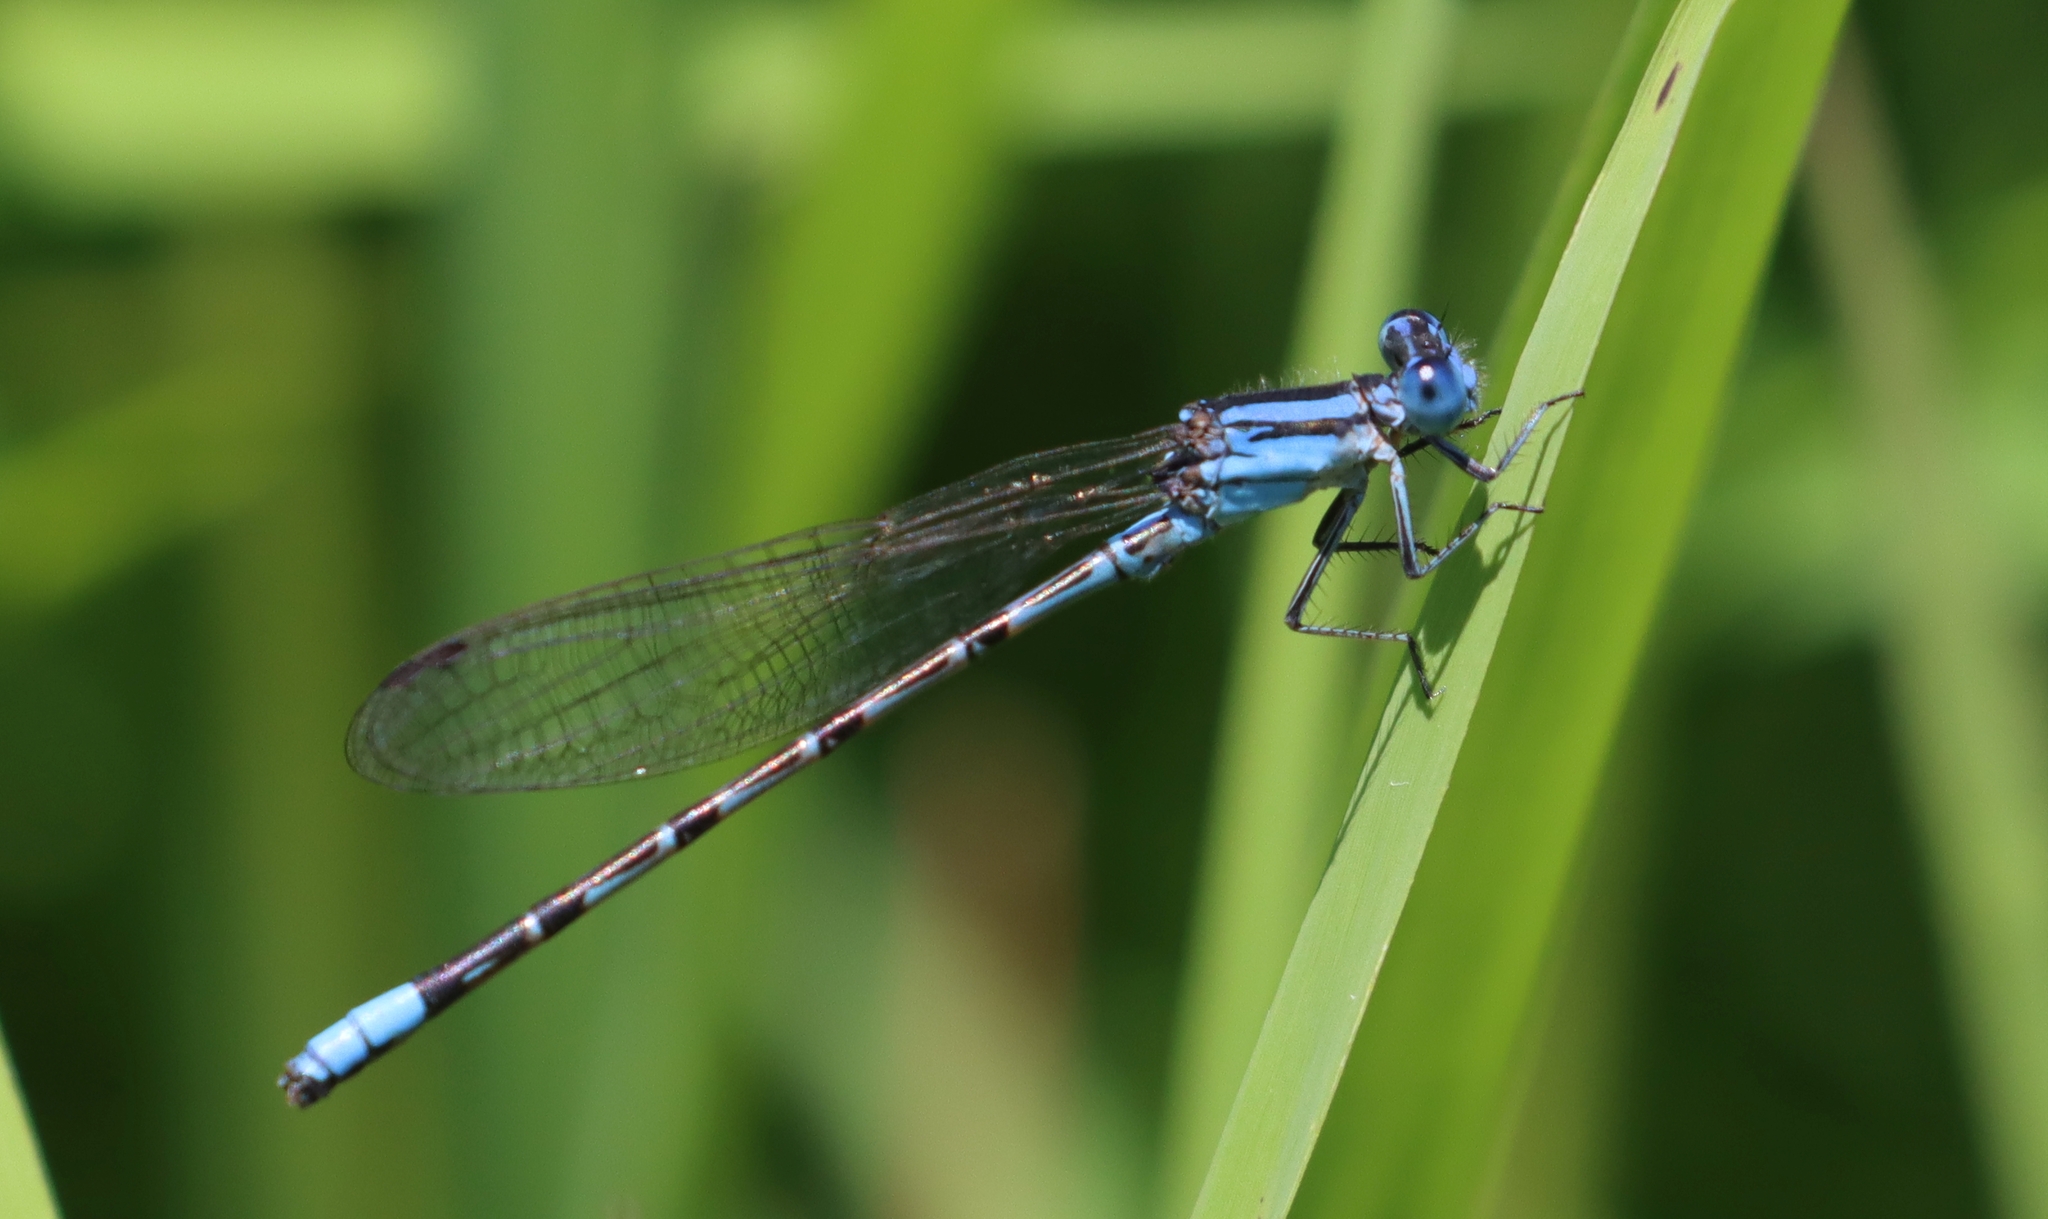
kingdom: Animalia
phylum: Arthropoda
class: Insecta
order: Odonata
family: Coenagrionidae
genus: Argia
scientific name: Argia alberta
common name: Paiute dancer
